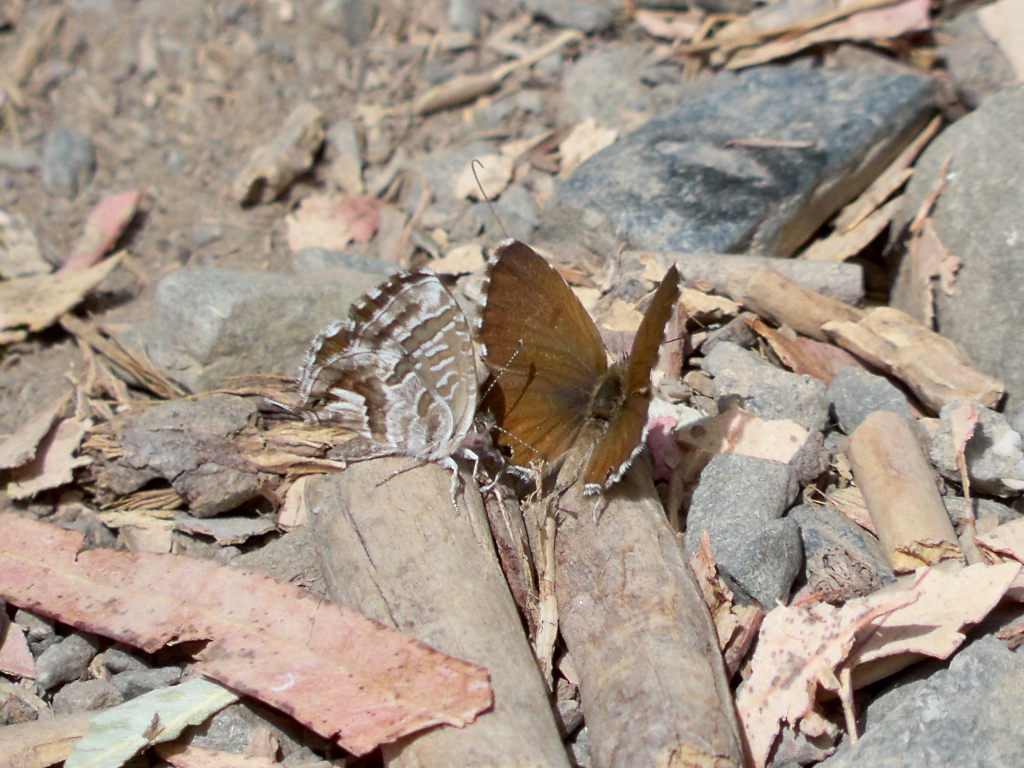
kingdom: Animalia
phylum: Arthropoda
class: Insecta
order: Lepidoptera
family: Lycaenidae
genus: Cacyreus
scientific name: Cacyreus marshalli
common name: Geranium bronze
